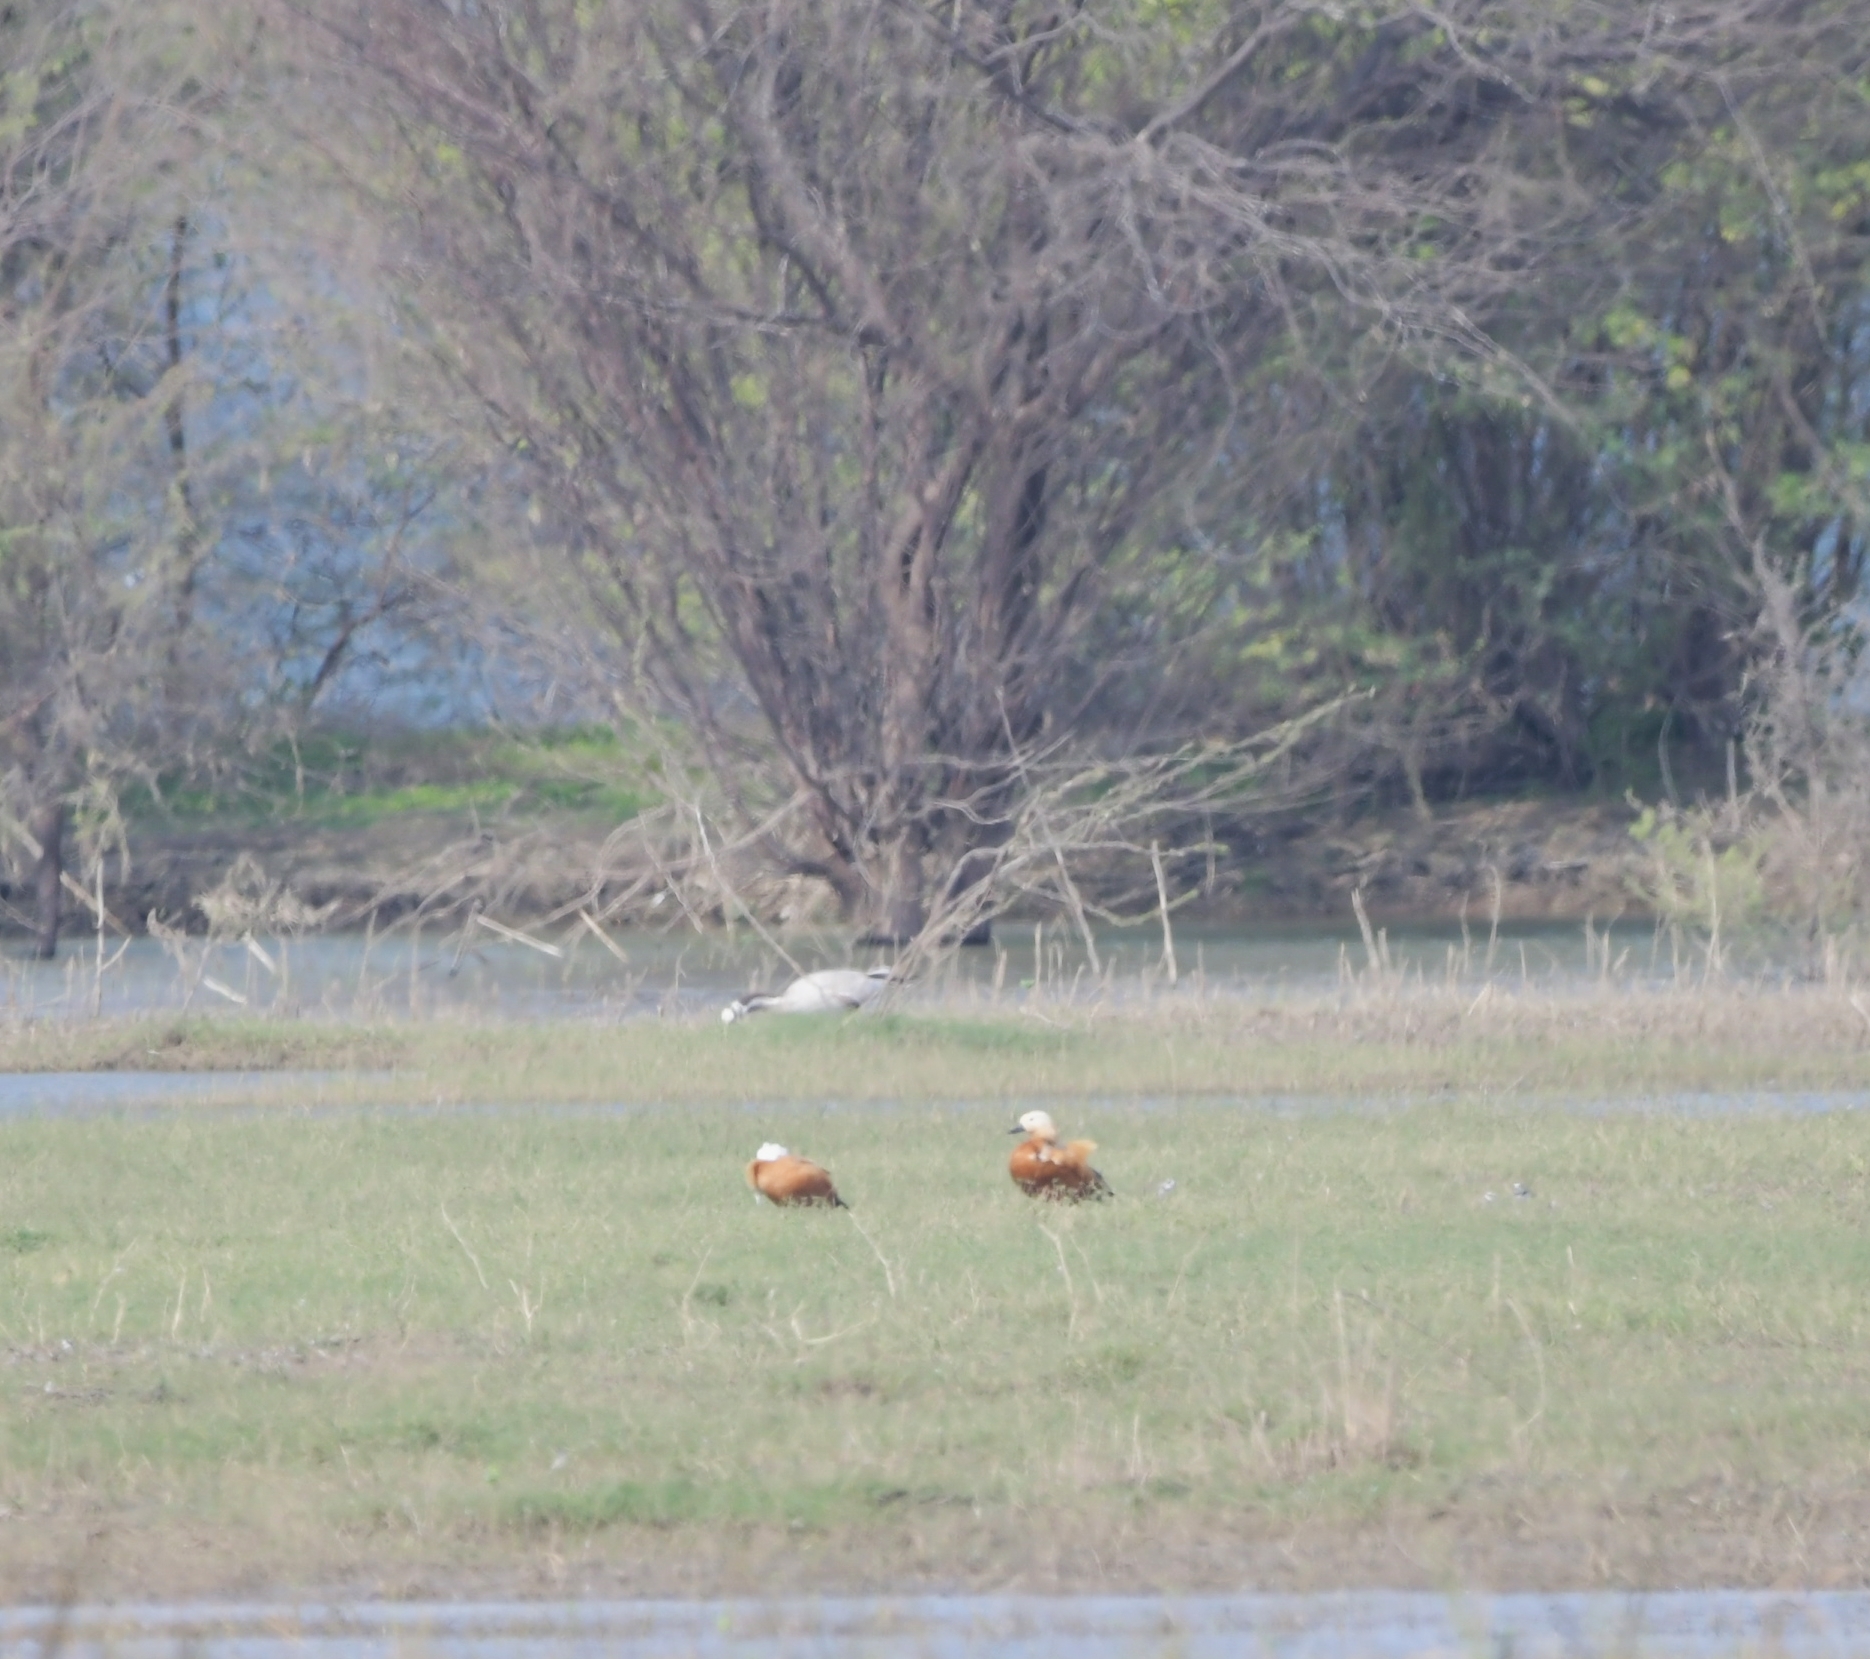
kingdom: Animalia
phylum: Chordata
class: Aves
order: Anseriformes
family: Anatidae
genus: Tadorna
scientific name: Tadorna ferruginea
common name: Ruddy shelduck
